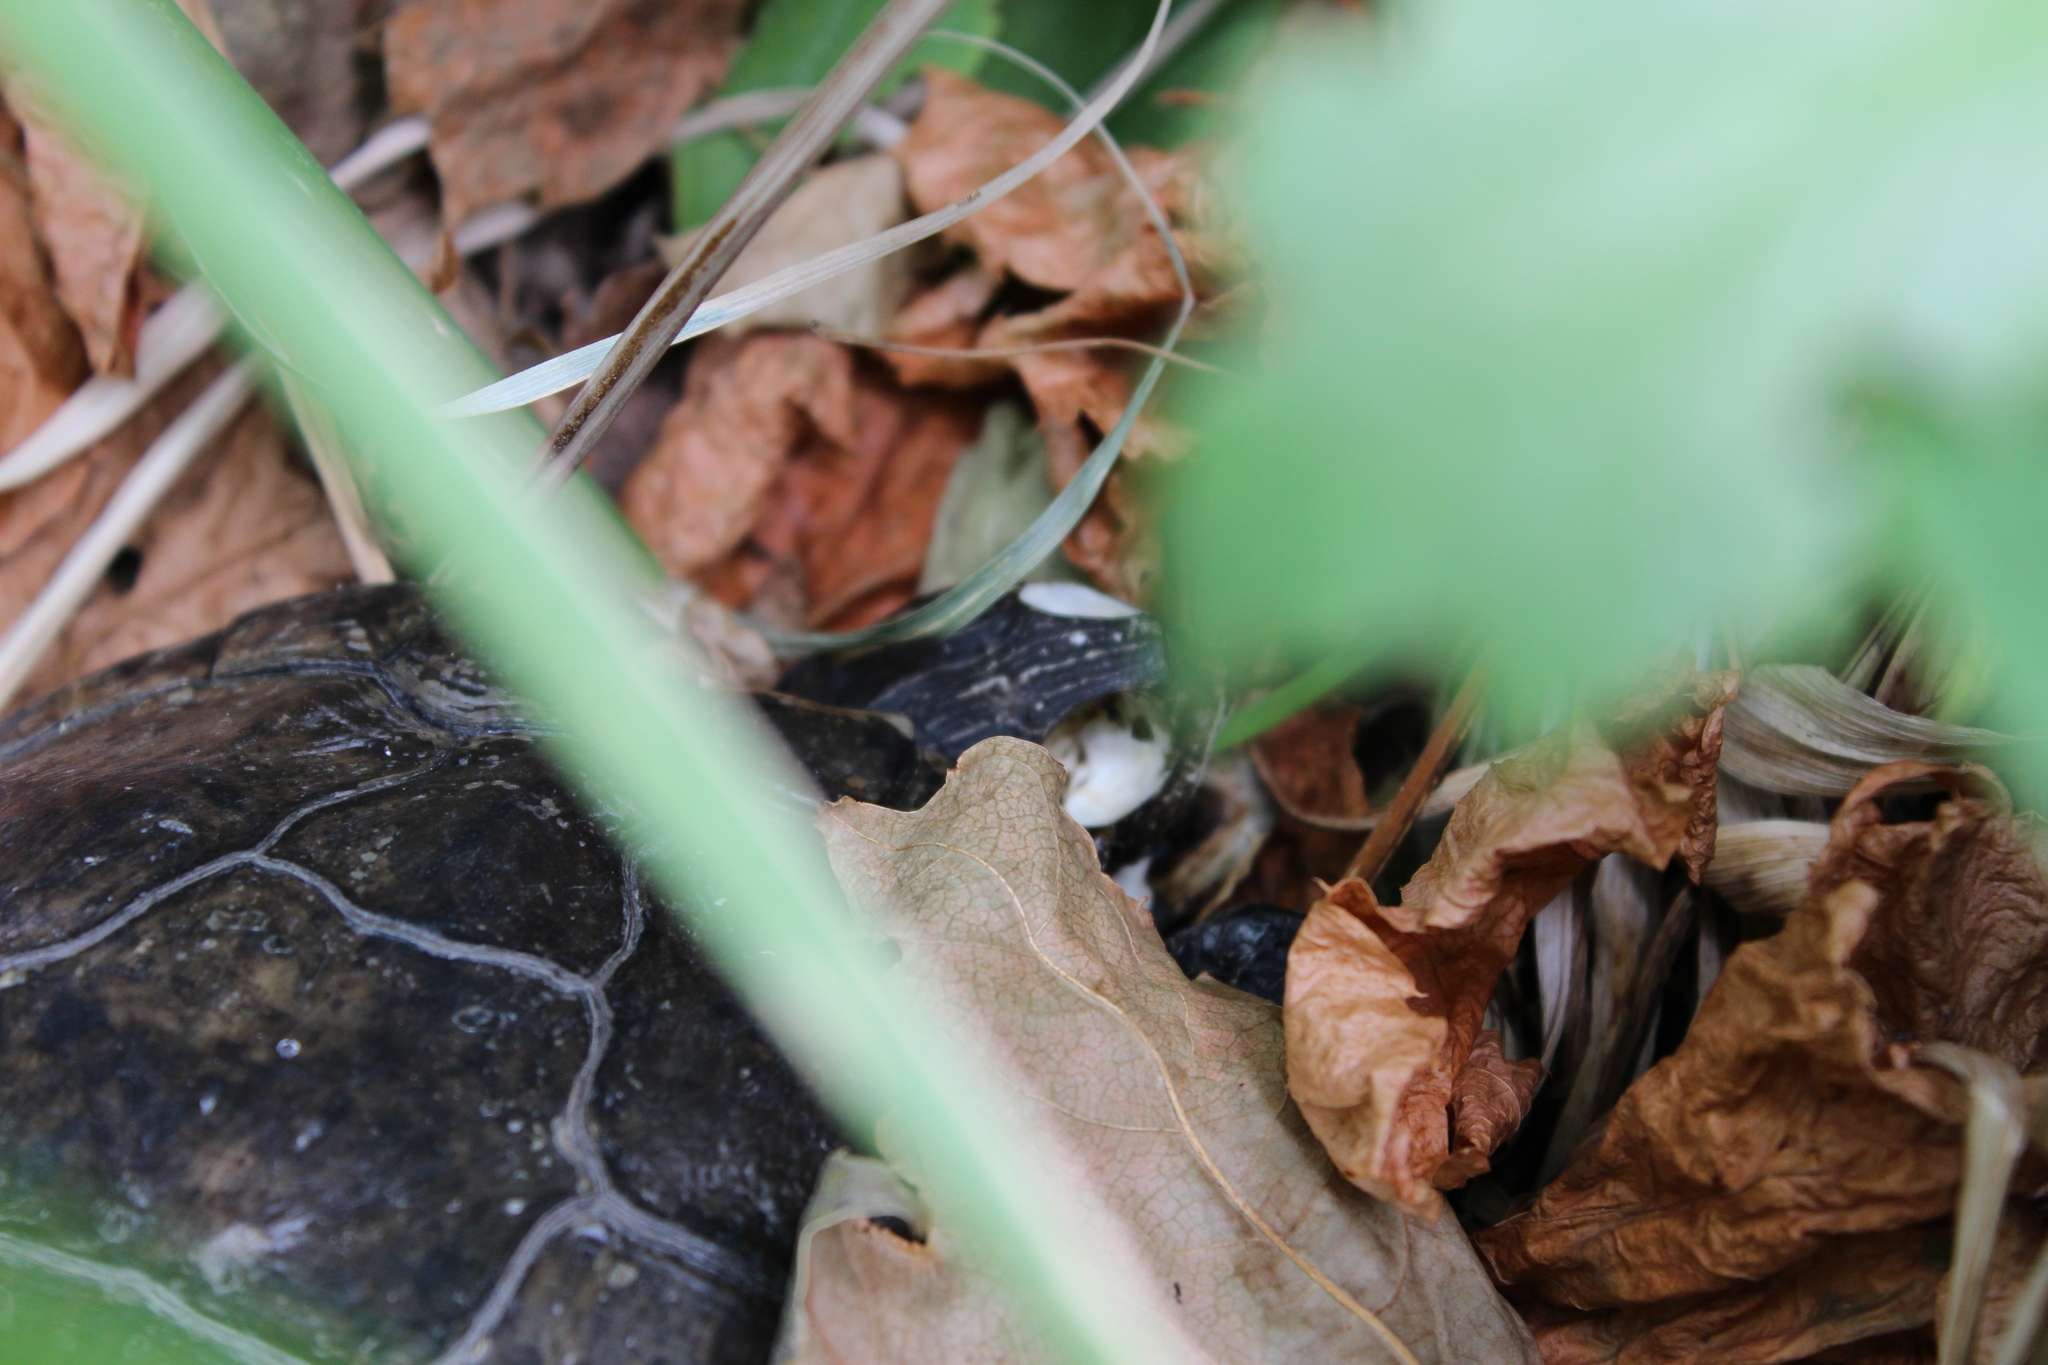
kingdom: Animalia
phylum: Chordata
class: Testudines
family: Emydidae
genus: Trachemys
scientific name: Trachemys scripta
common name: Slider
